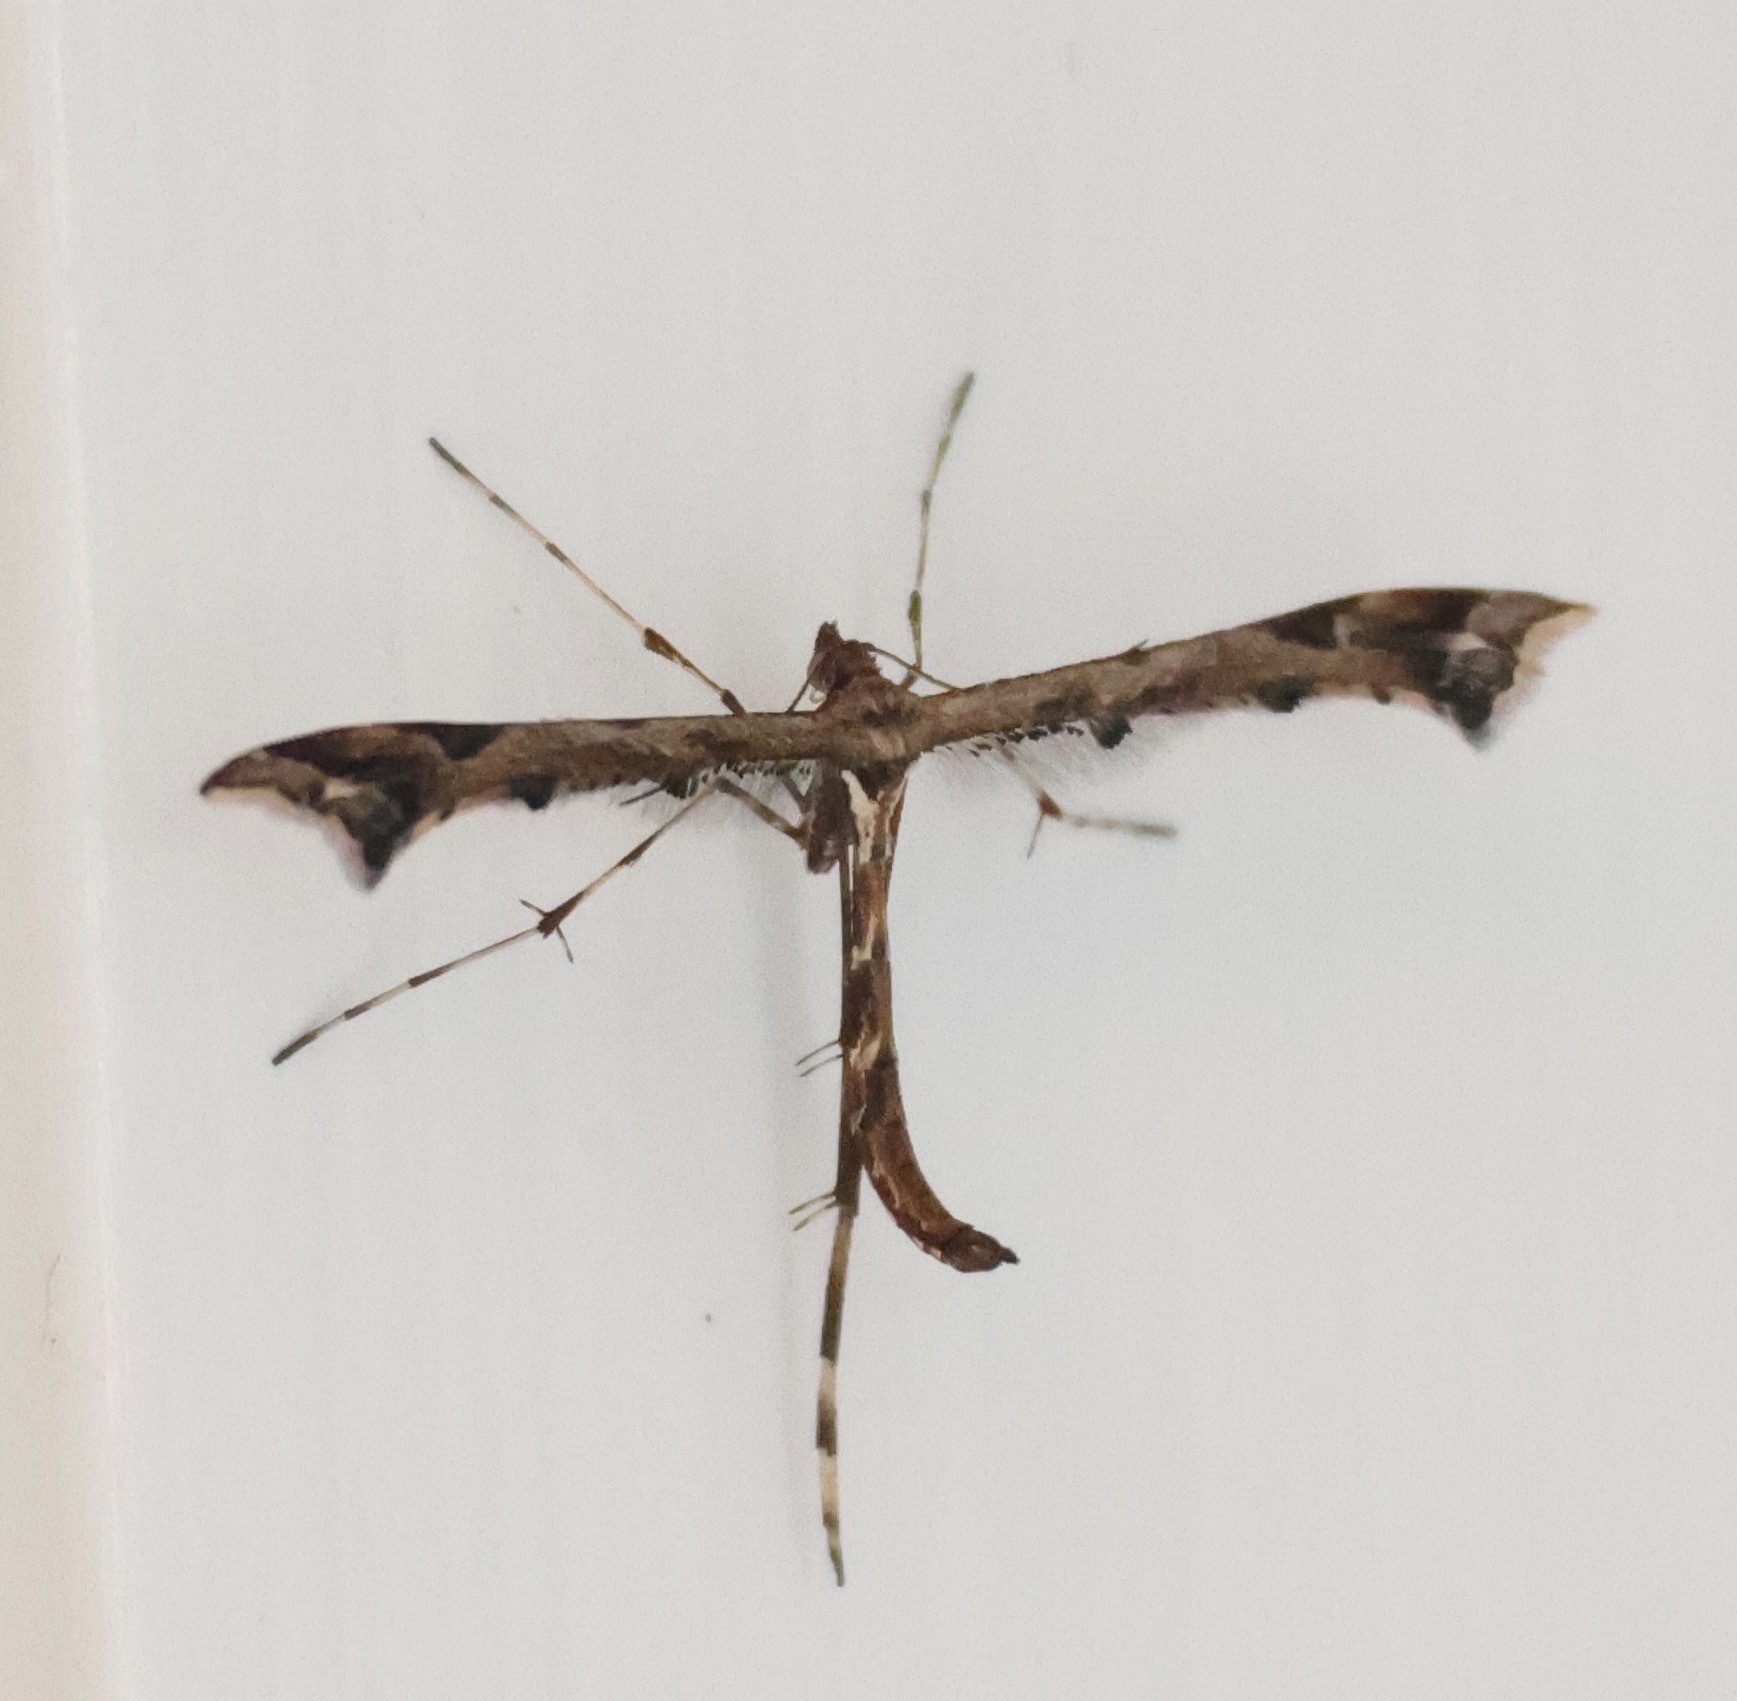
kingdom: Animalia
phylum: Arthropoda
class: Insecta
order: Lepidoptera
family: Pterophoridae
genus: Amblyptilia
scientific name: Amblyptilia acanthadactyla
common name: Beautiful plume
